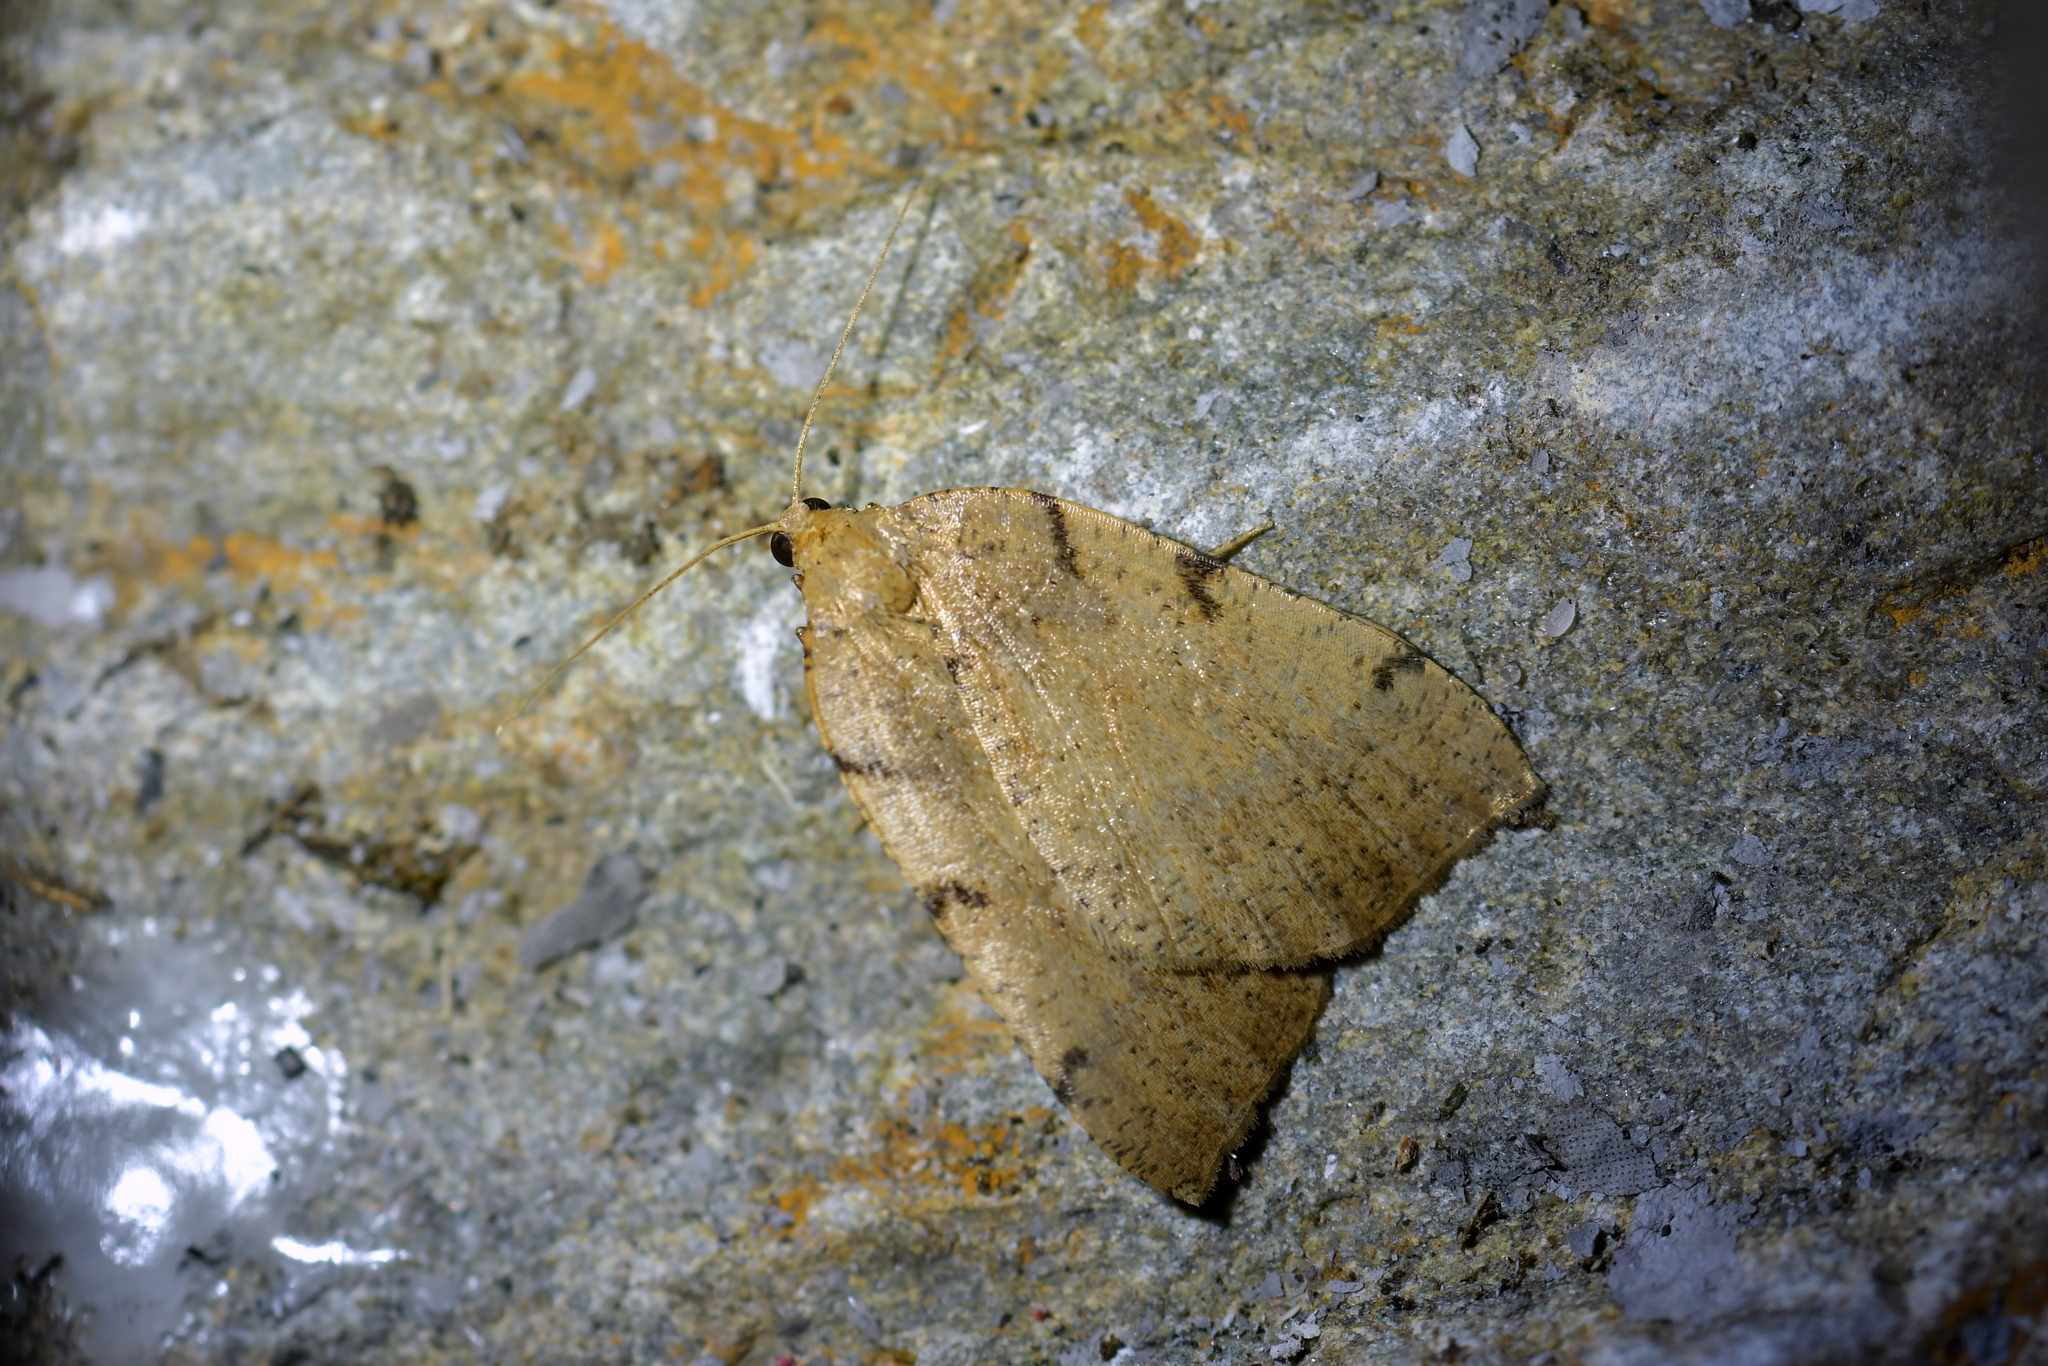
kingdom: Animalia
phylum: Arthropoda
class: Insecta
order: Lepidoptera
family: Geometridae
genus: Sestra
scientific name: Sestra humeraria
